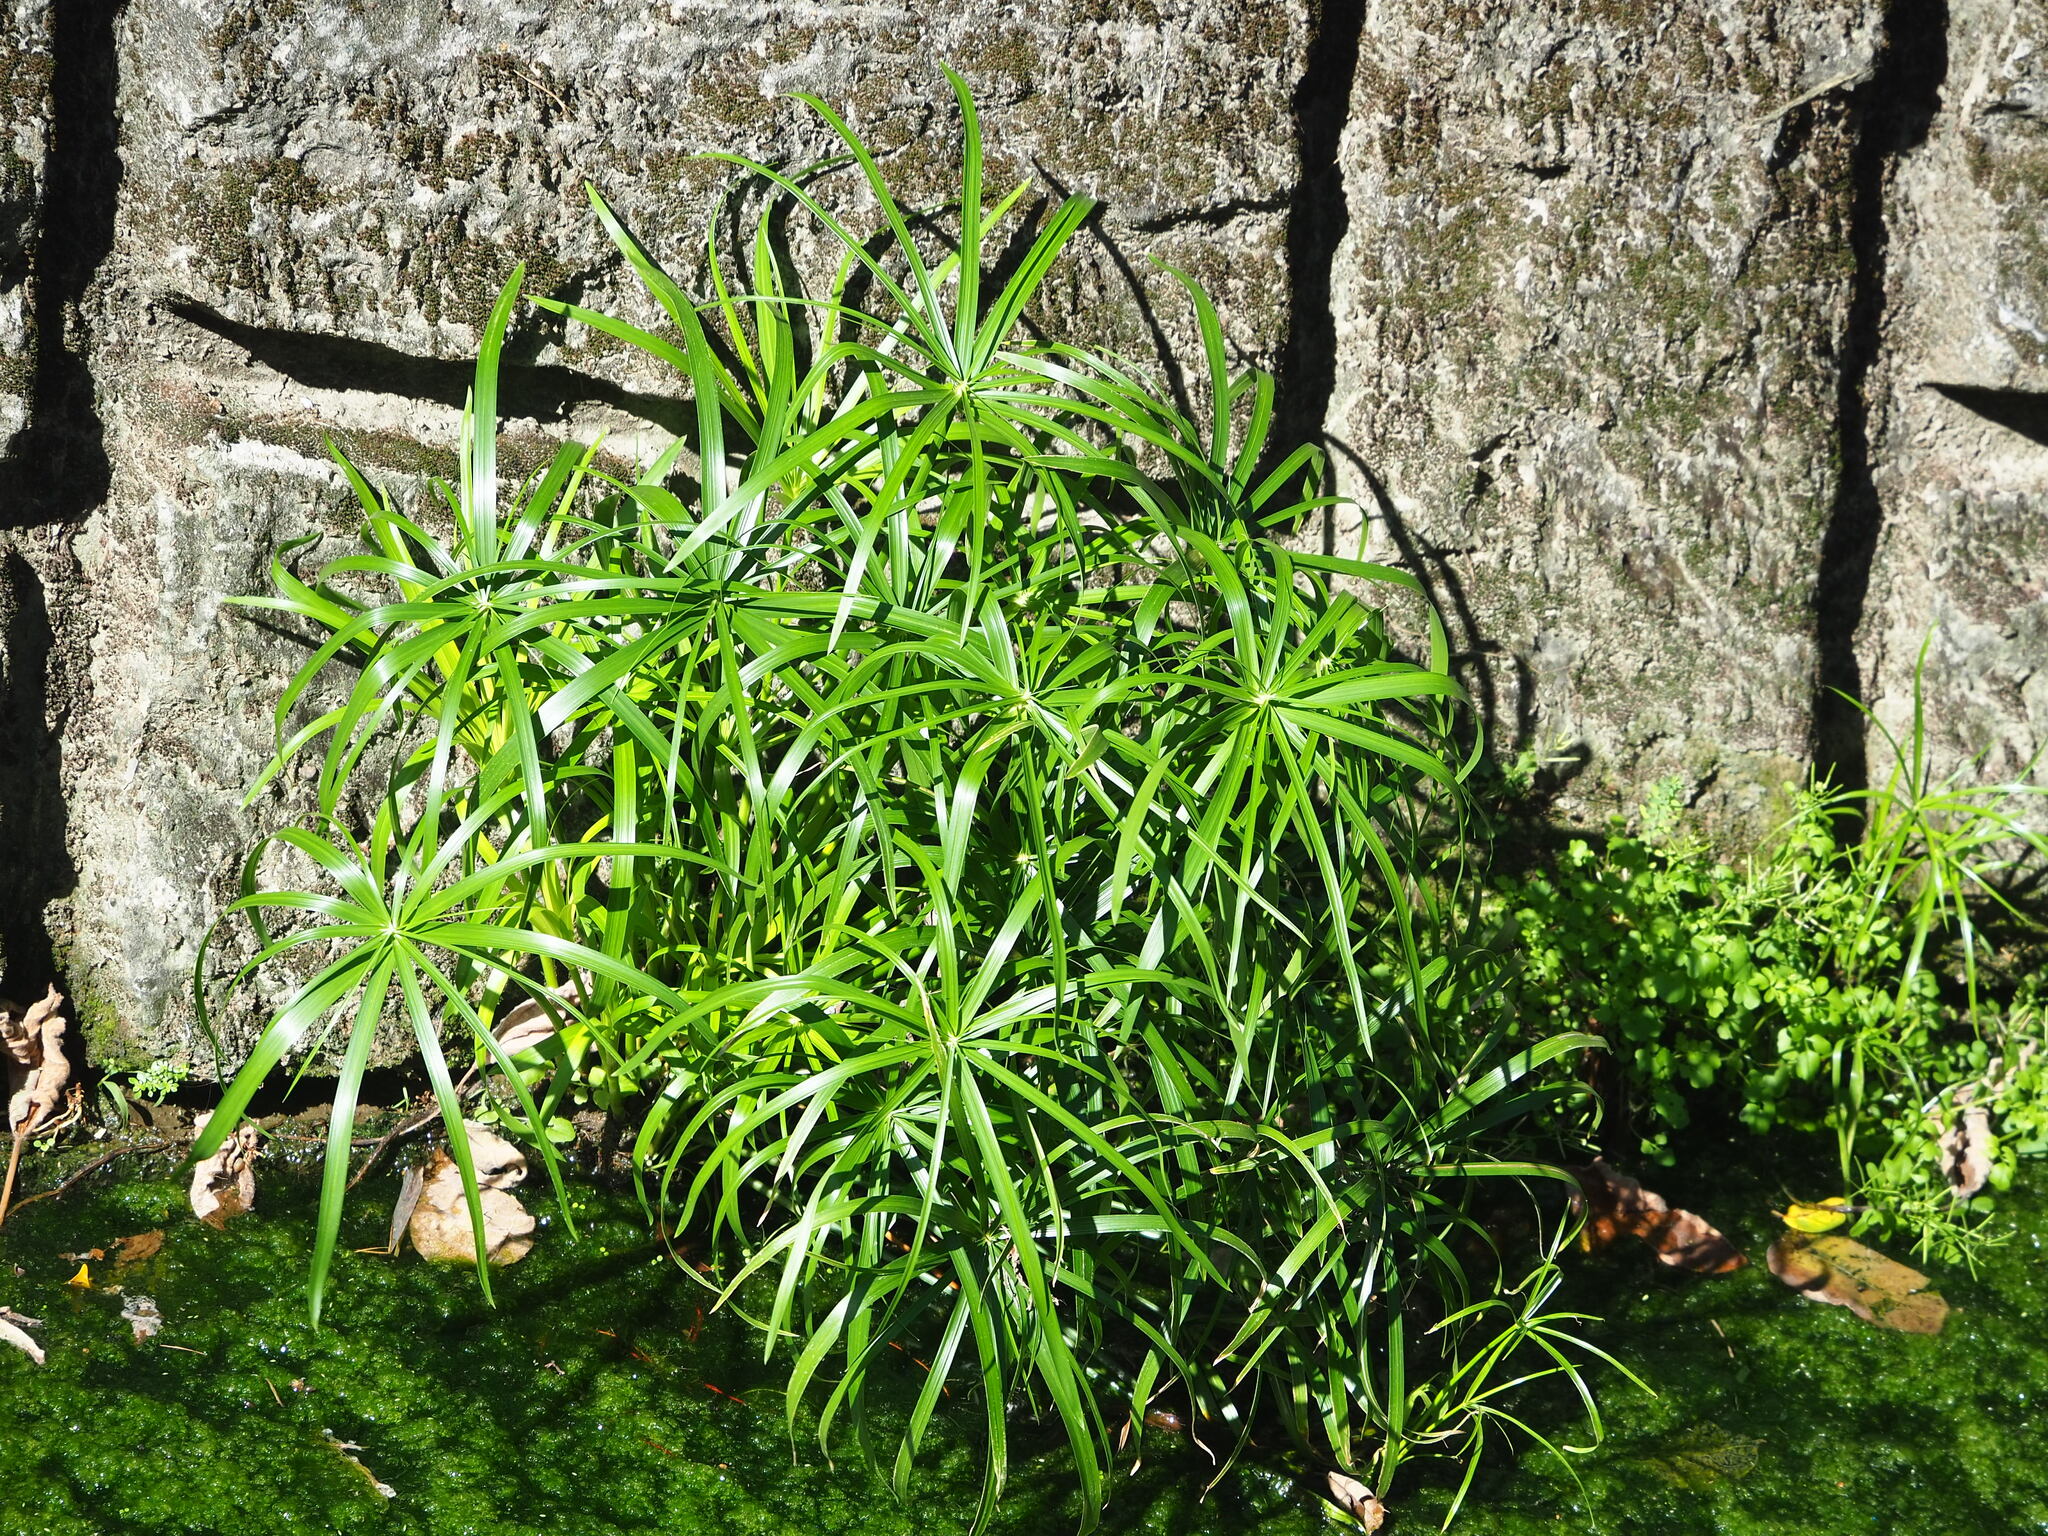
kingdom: Plantae
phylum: Tracheophyta
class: Liliopsida
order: Poales
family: Cyperaceae
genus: Cyperus
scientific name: Cyperus alternifolius
